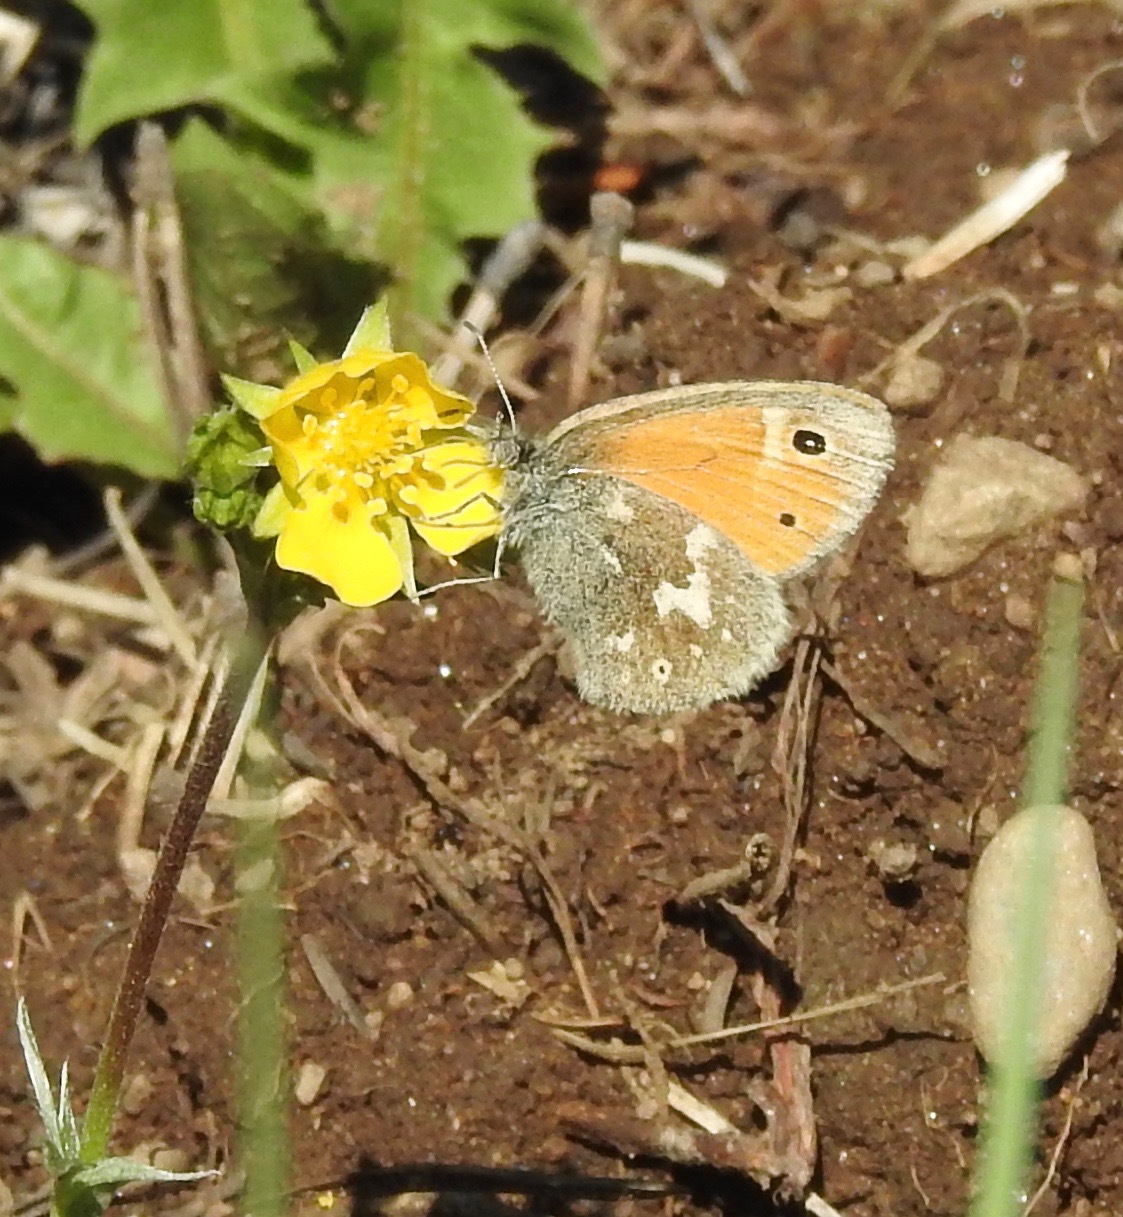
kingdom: Animalia
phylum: Arthropoda
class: Insecta
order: Lepidoptera
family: Nymphalidae
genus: Coenonympha
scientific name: Coenonympha california
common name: Common ringlet
